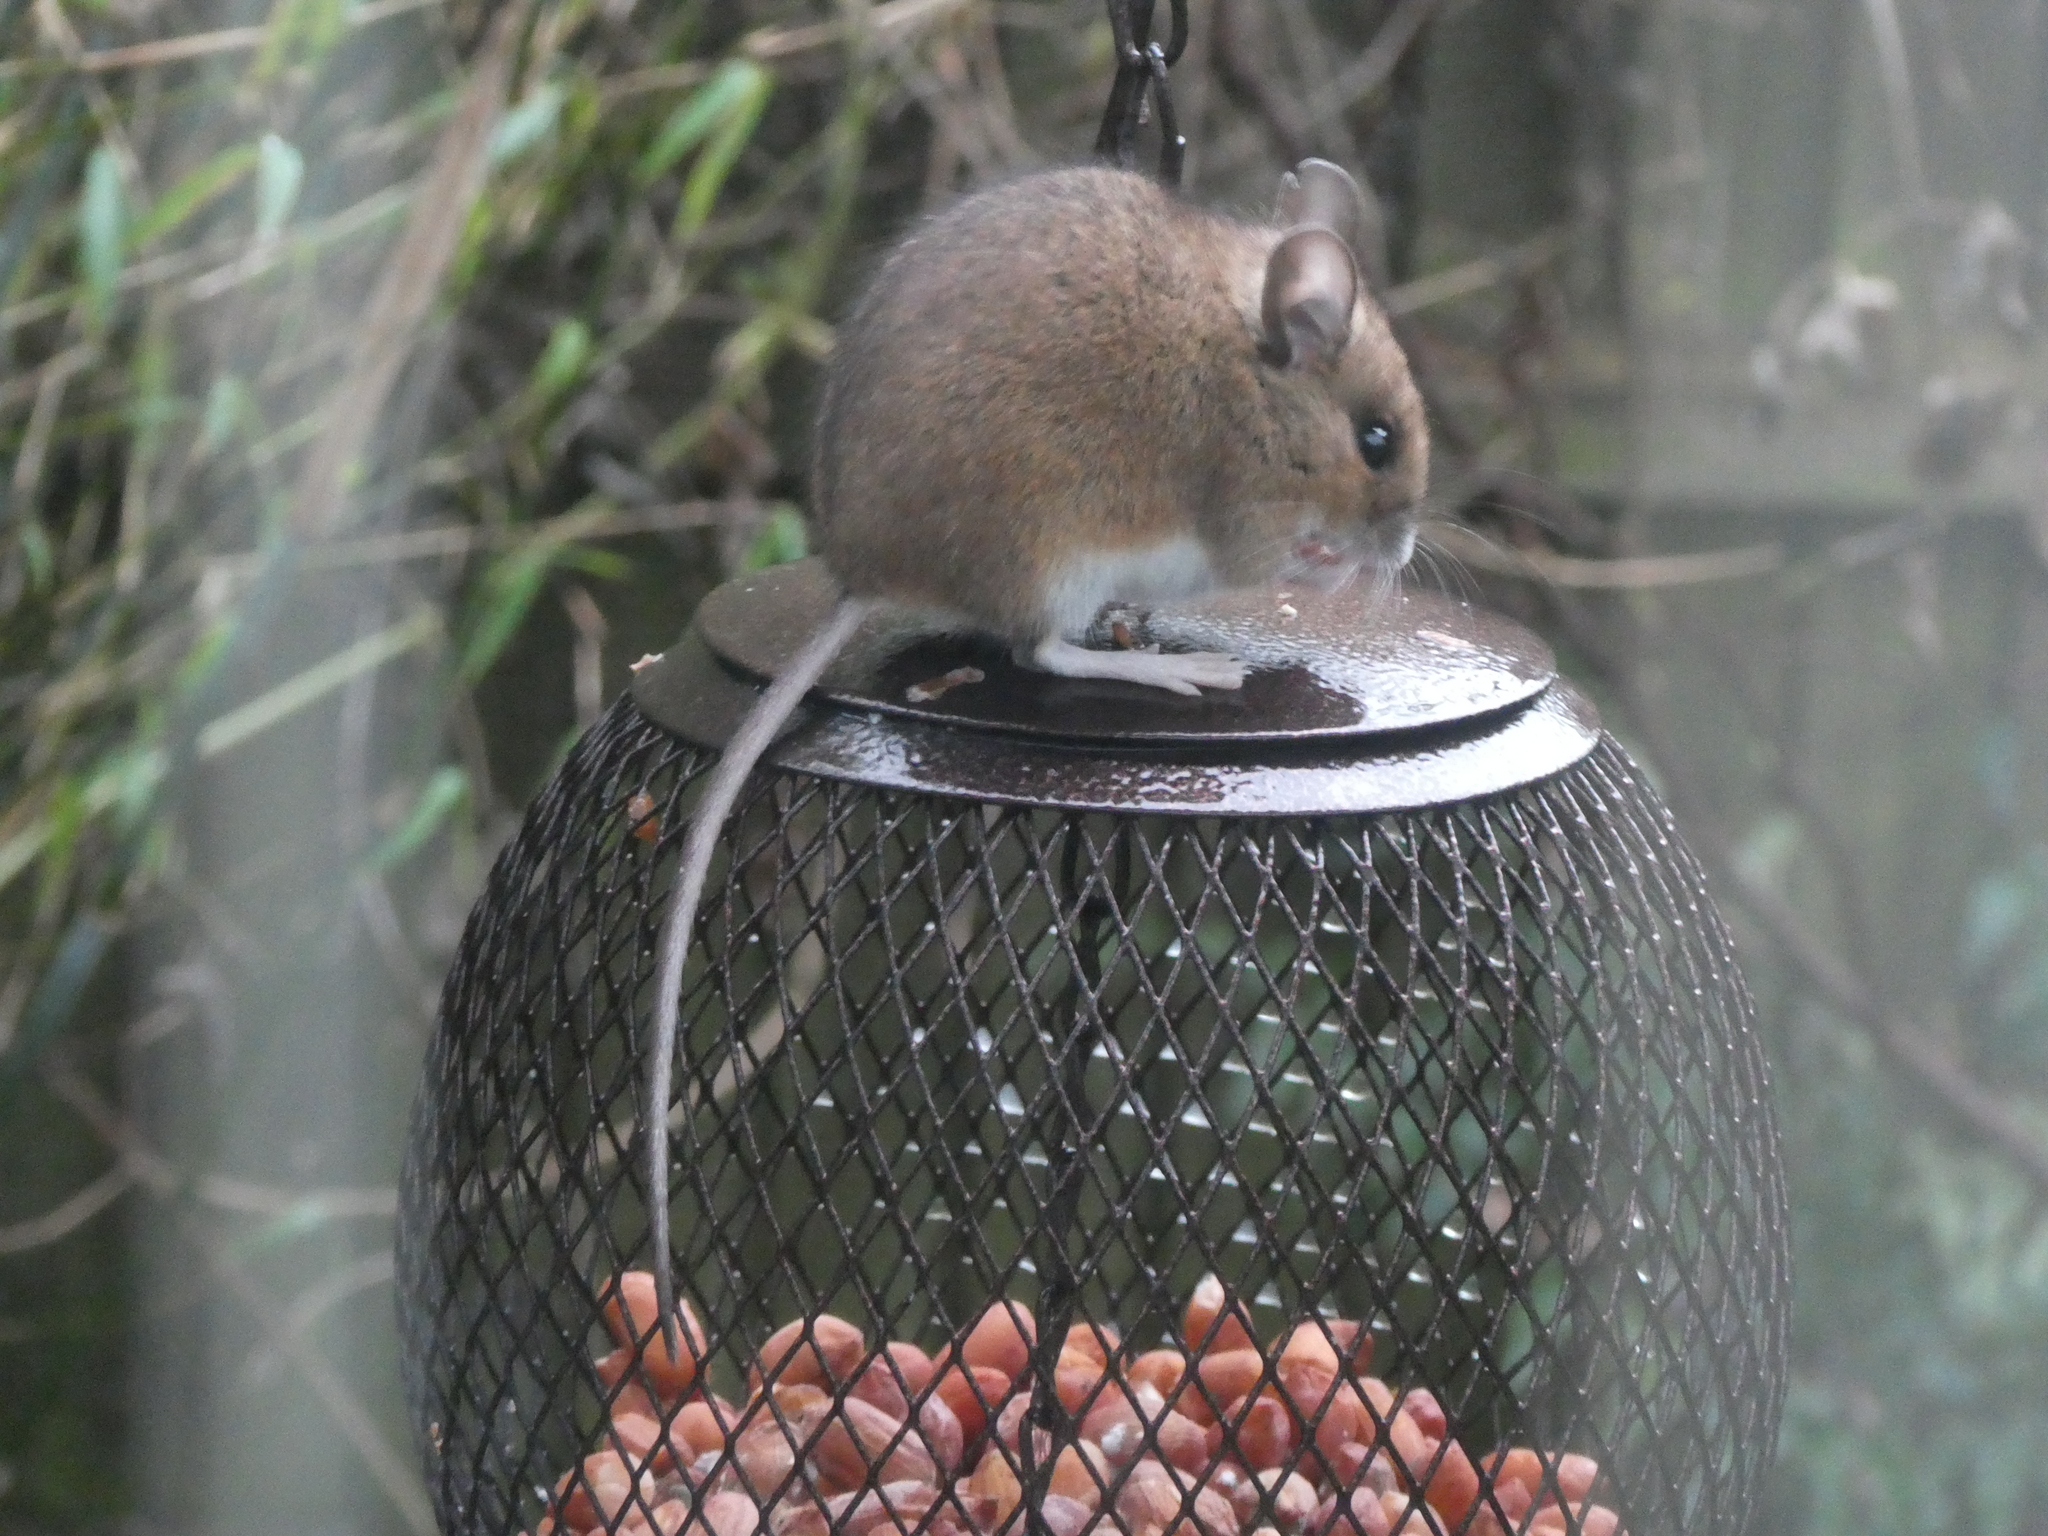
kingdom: Animalia
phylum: Chordata
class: Mammalia
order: Rodentia
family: Muridae
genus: Apodemus
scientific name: Apodemus sylvaticus
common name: Wood mouse
